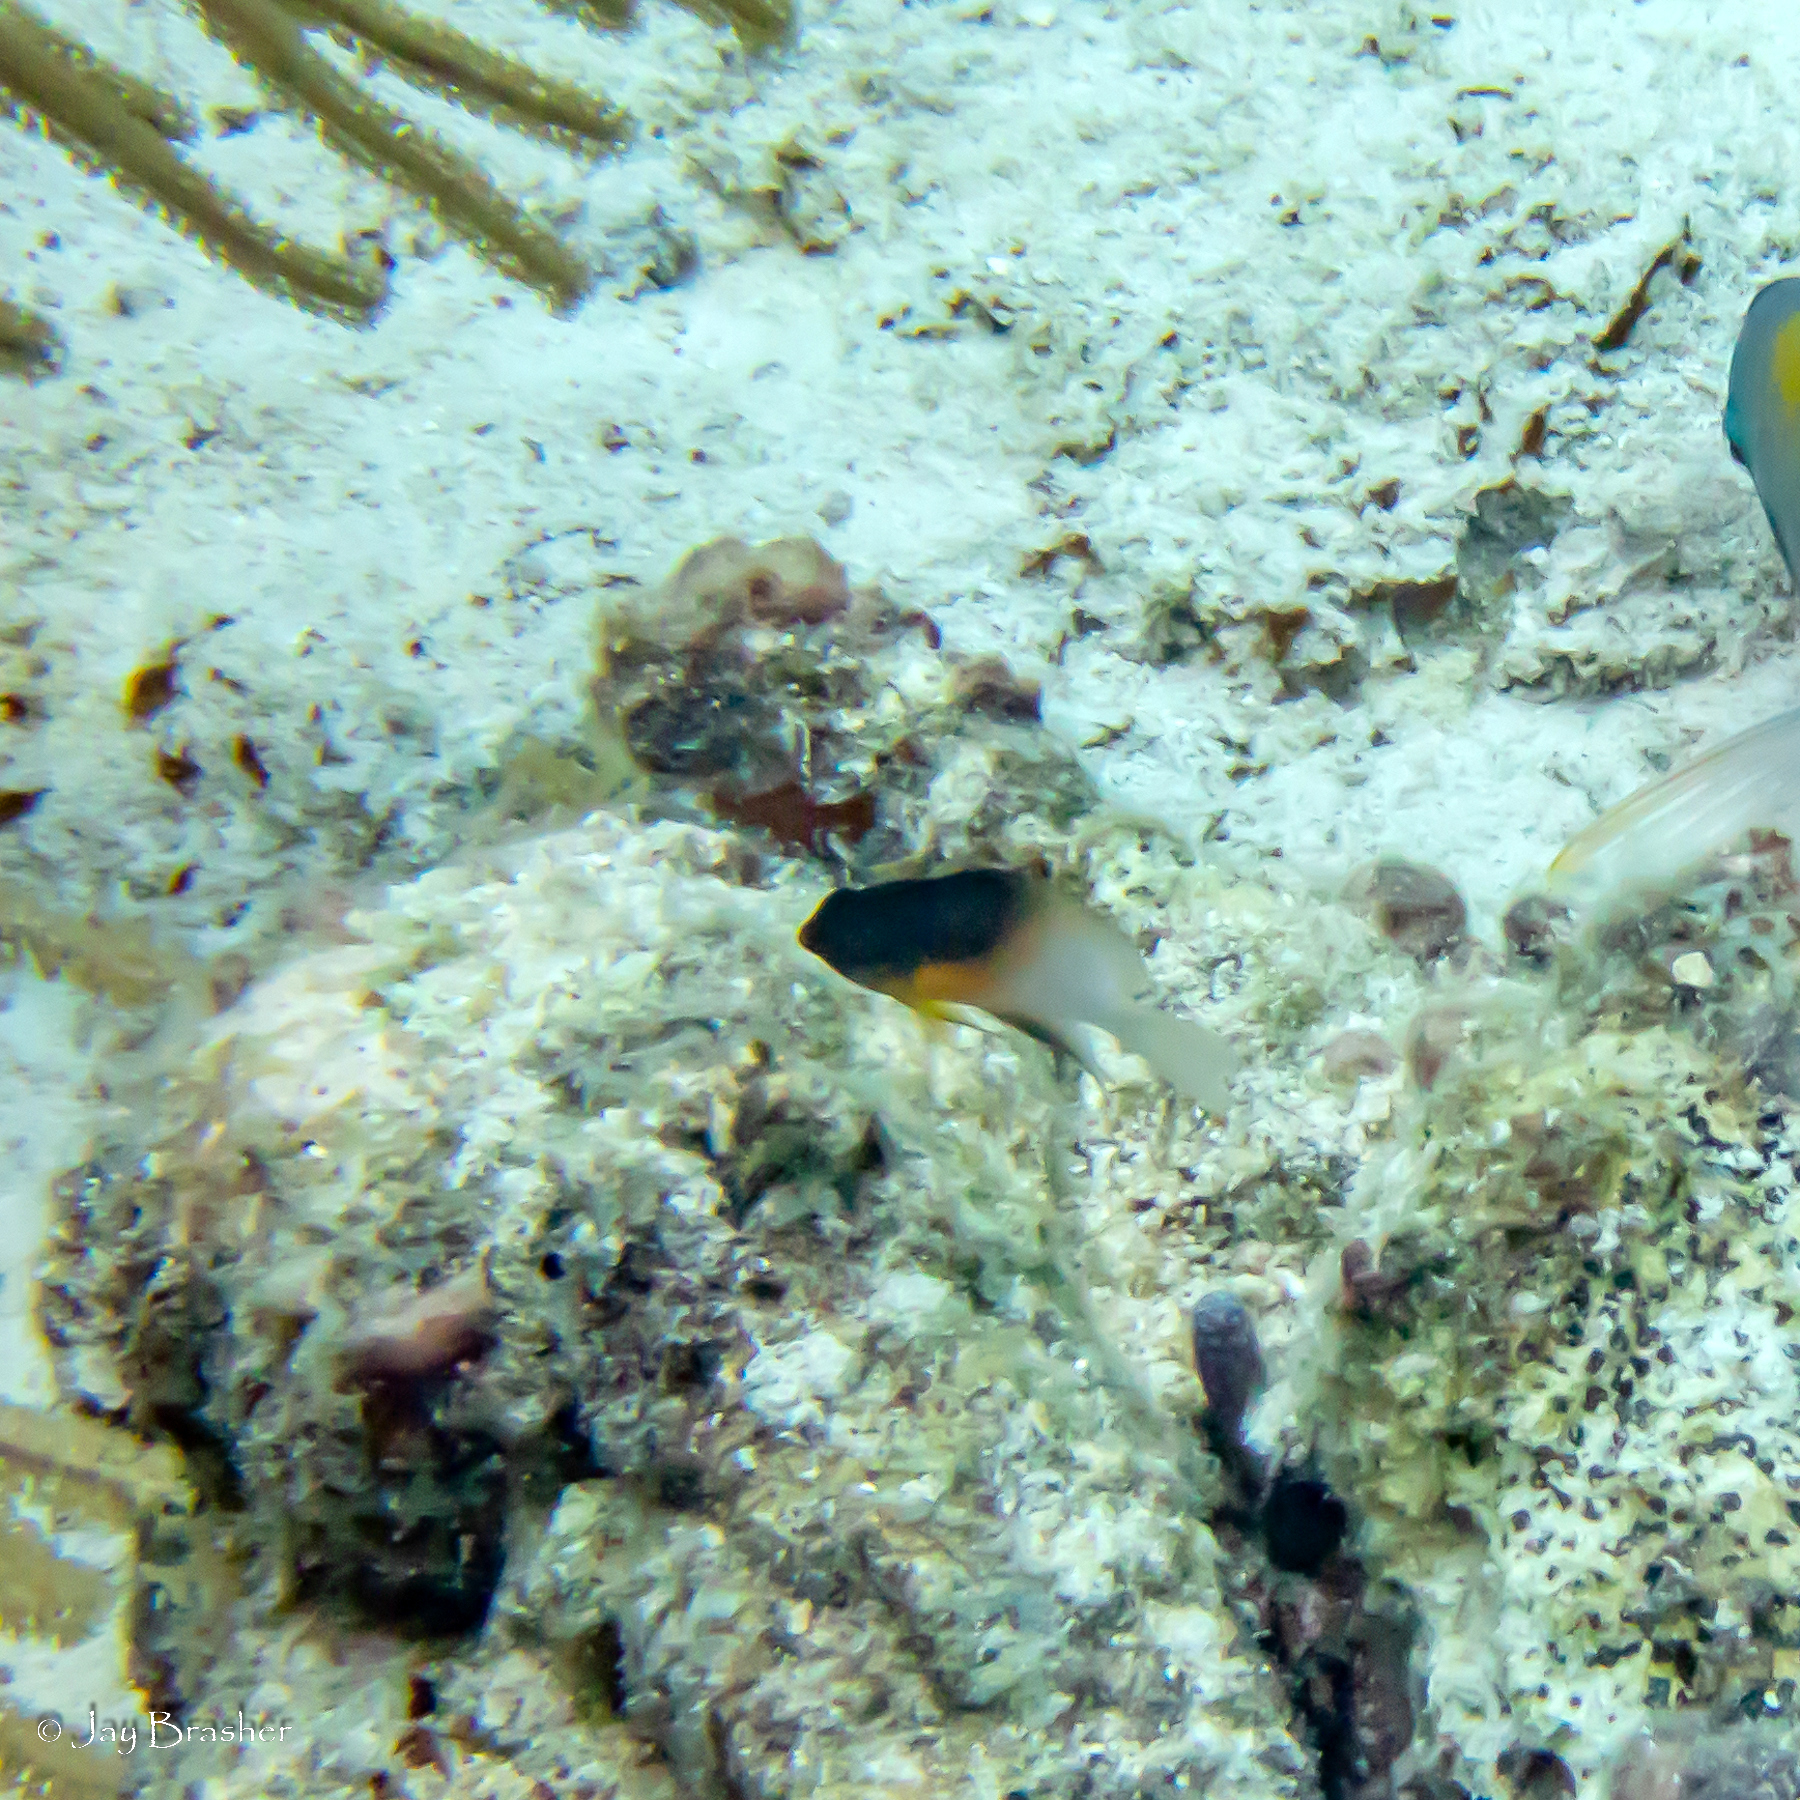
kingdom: Animalia
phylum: Chordata
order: Perciformes
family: Pomacentridae
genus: Stegastes
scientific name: Stegastes partitus
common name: Bicolor damselfish
